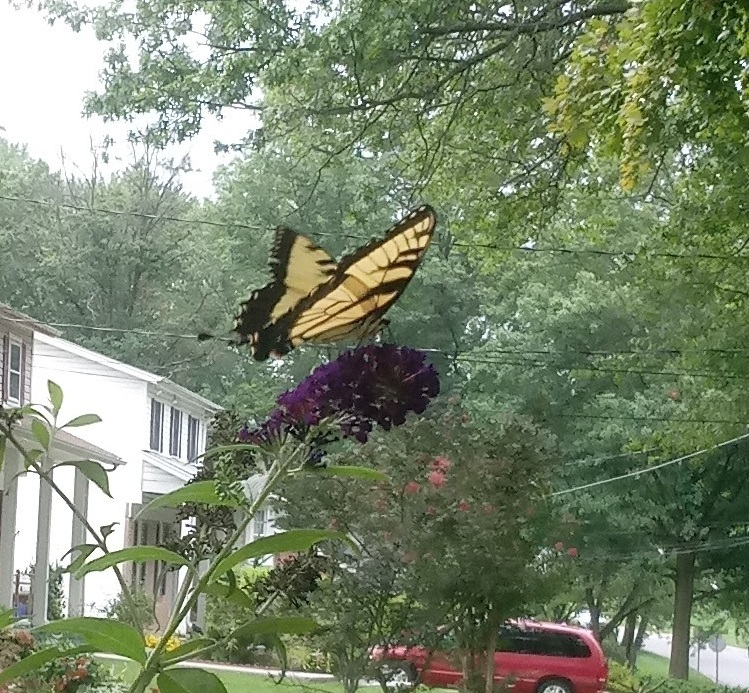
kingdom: Animalia
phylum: Arthropoda
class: Insecta
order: Lepidoptera
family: Papilionidae
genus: Papilio
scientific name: Papilio glaucus
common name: Tiger swallowtail
